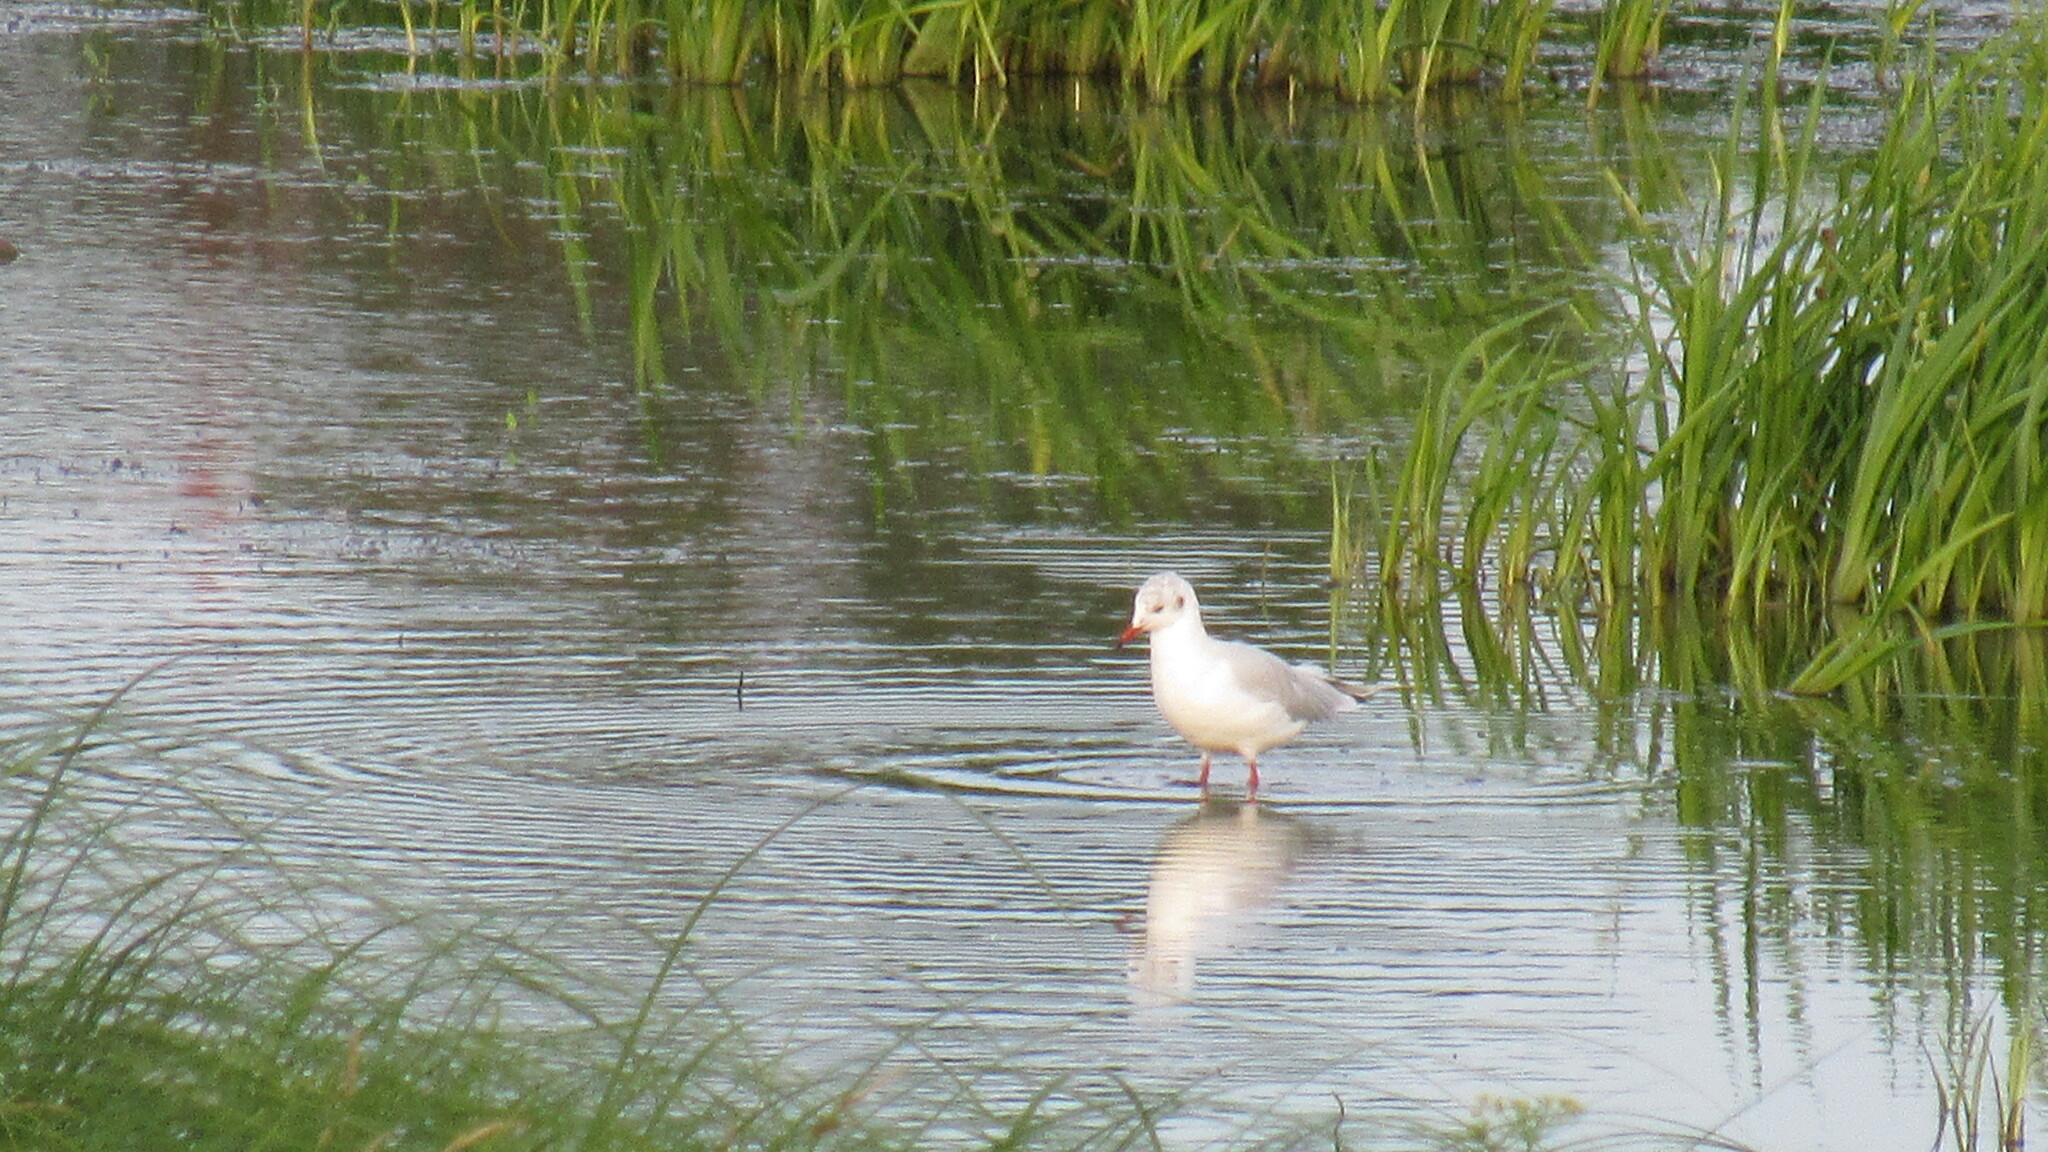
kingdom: Animalia
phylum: Chordata
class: Aves
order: Charadriiformes
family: Laridae
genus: Chroicocephalus
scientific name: Chroicocephalus ridibundus
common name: Black-headed gull
